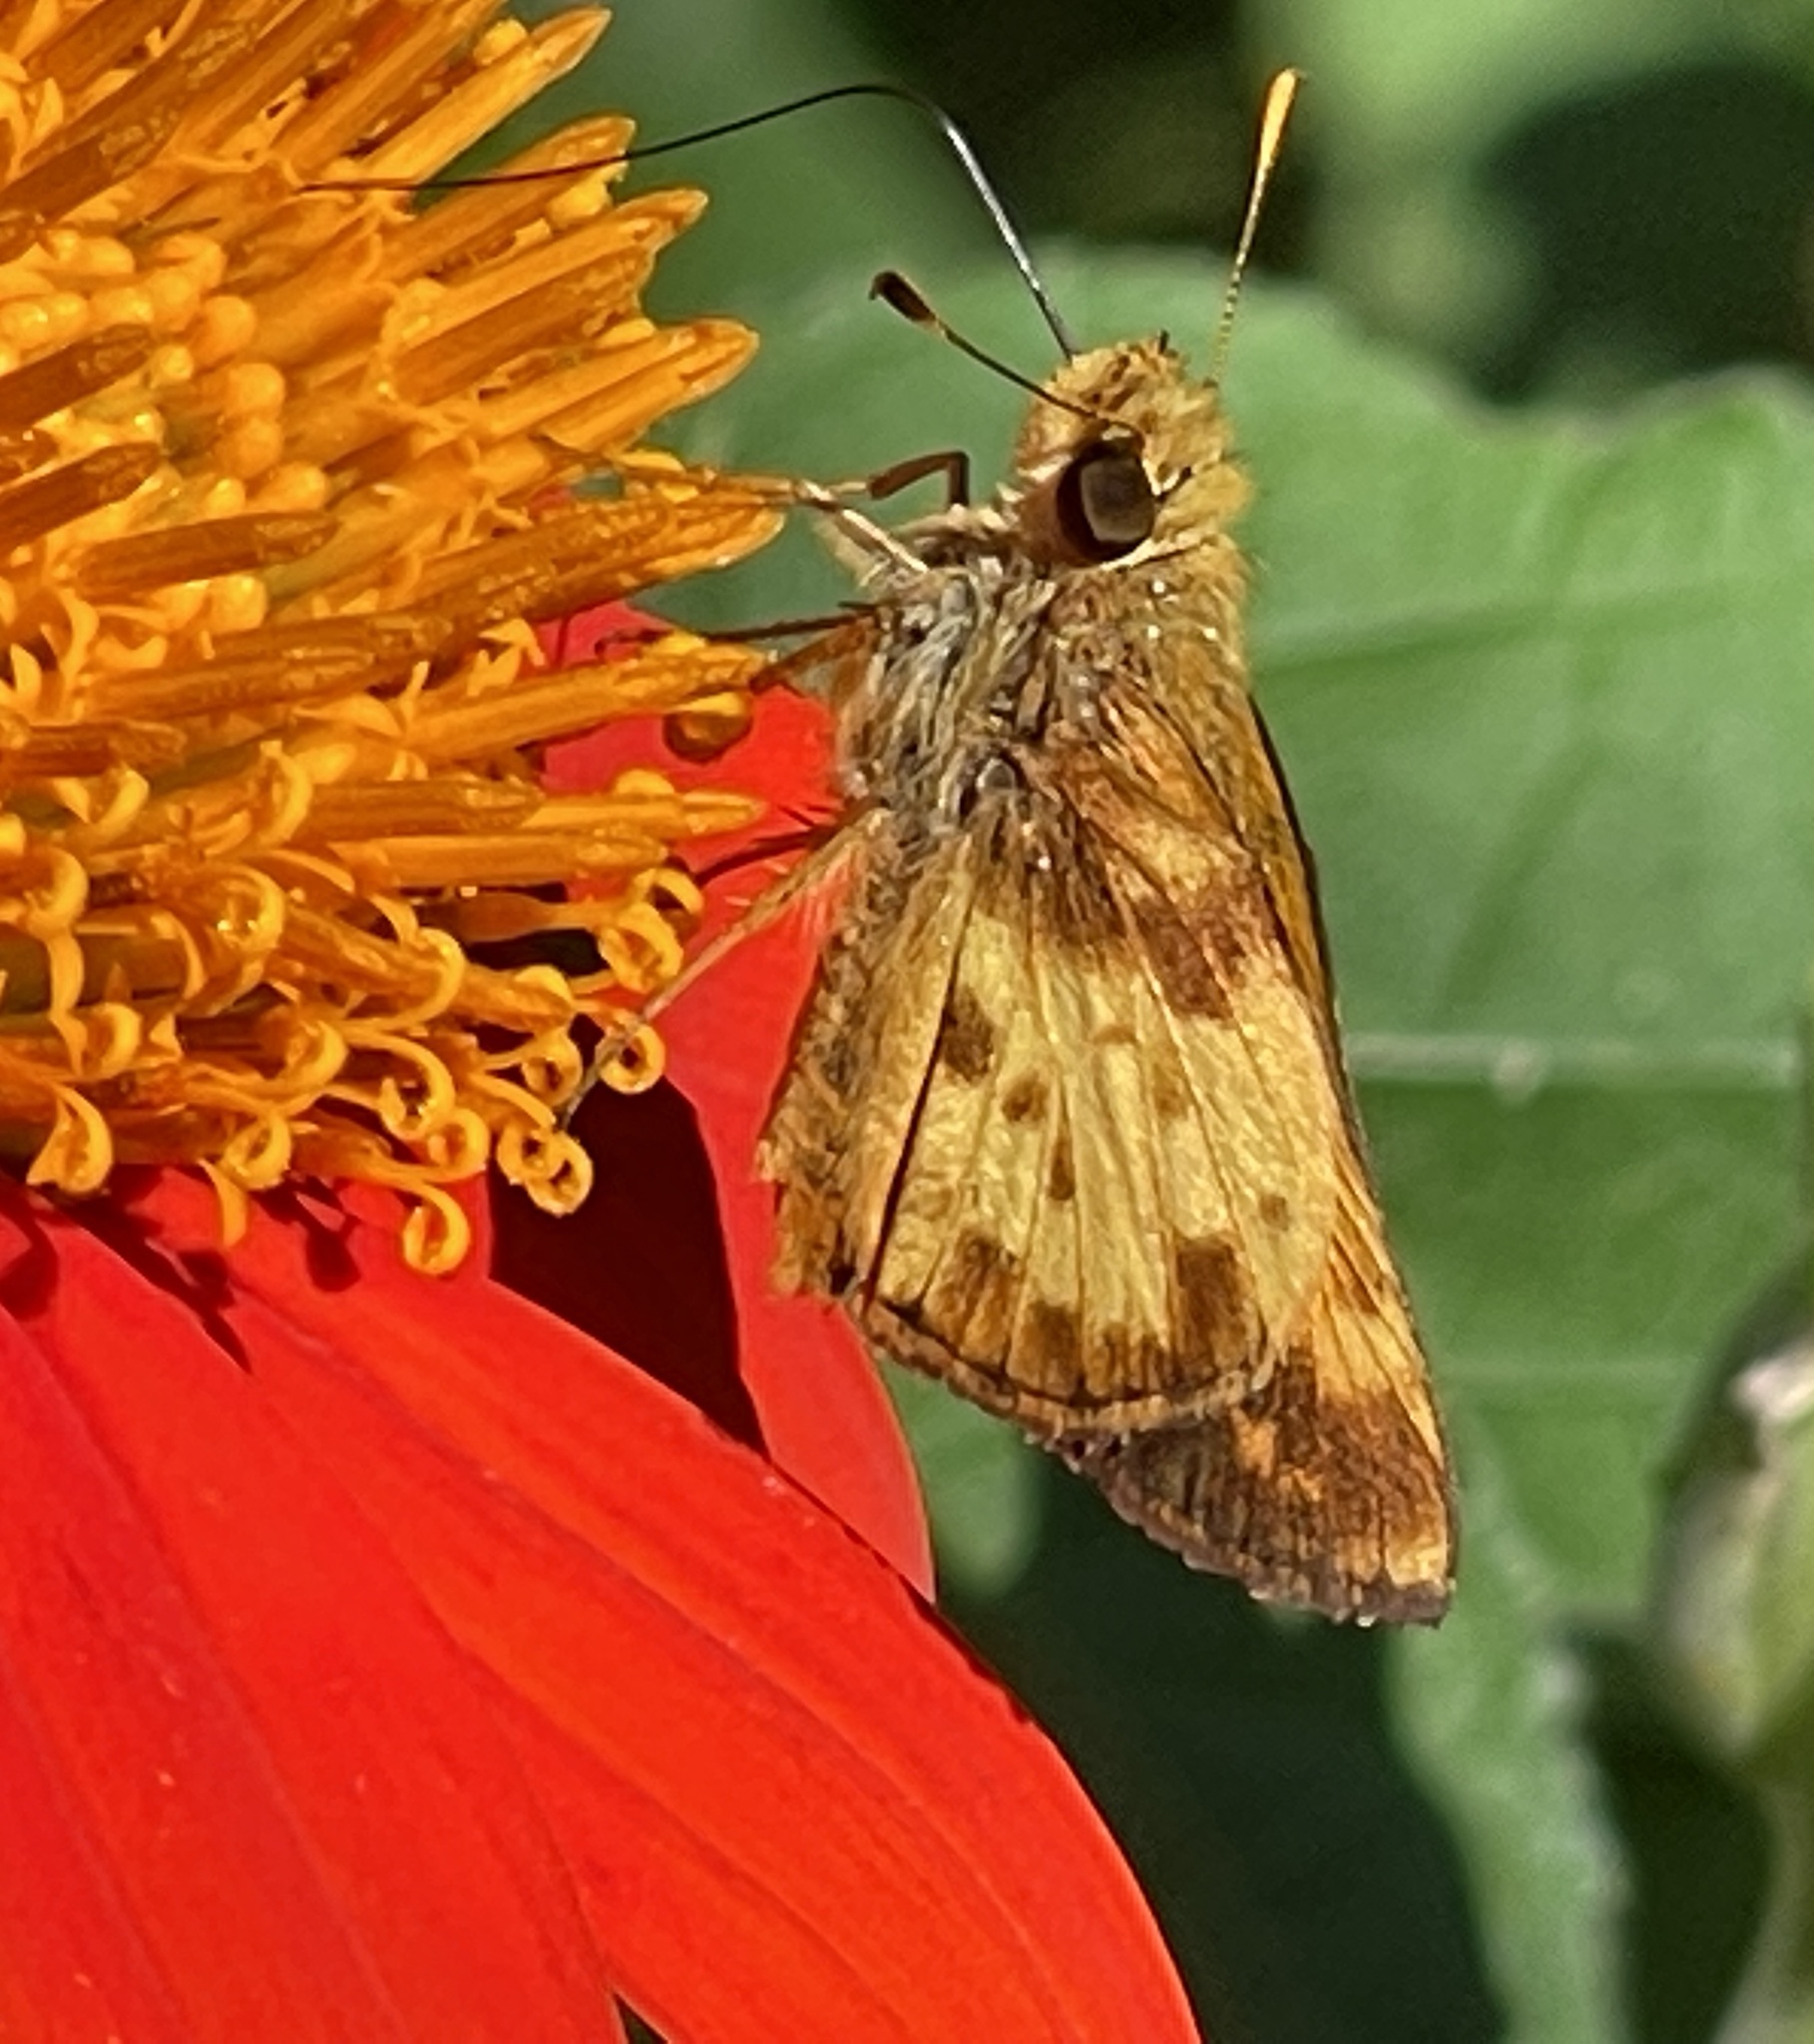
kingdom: Animalia
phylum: Arthropoda
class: Insecta
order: Lepidoptera
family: Hesperiidae
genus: Lon
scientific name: Lon zabulon
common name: Zabulon skipper
